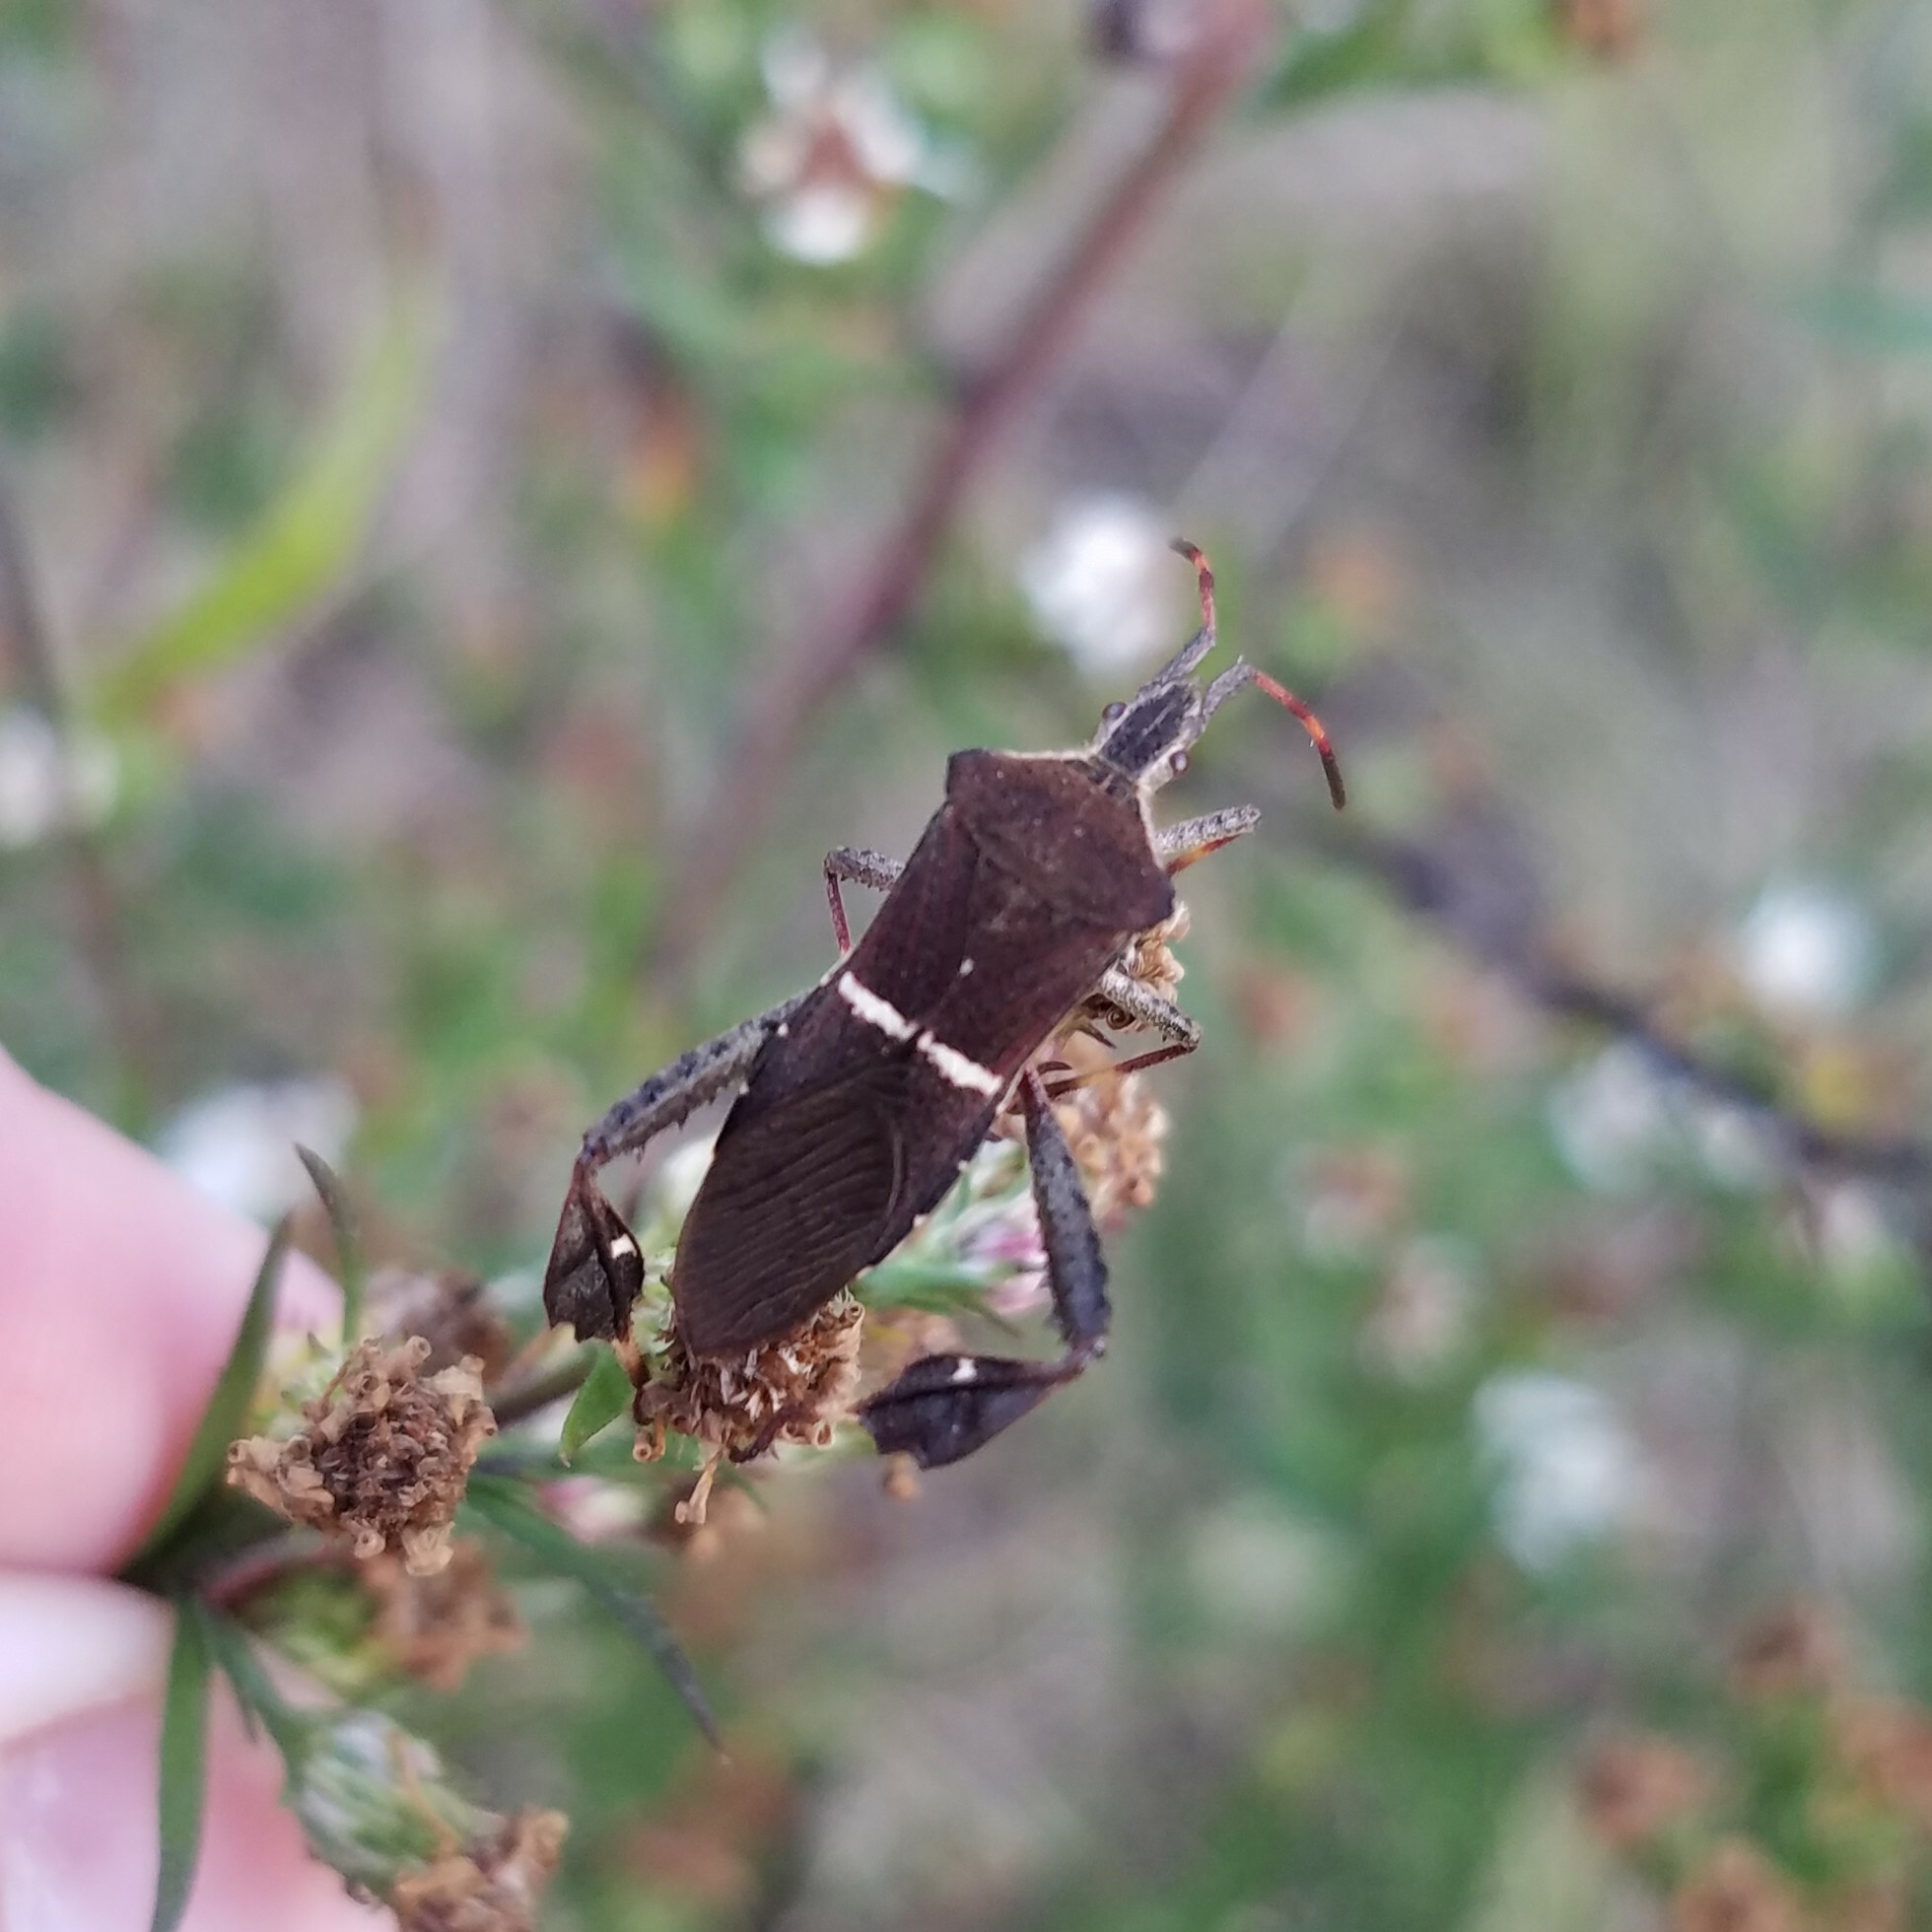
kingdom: Animalia
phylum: Arthropoda
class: Insecta
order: Hemiptera
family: Coreidae
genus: Leptoglossus
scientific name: Leptoglossus phyllopus
